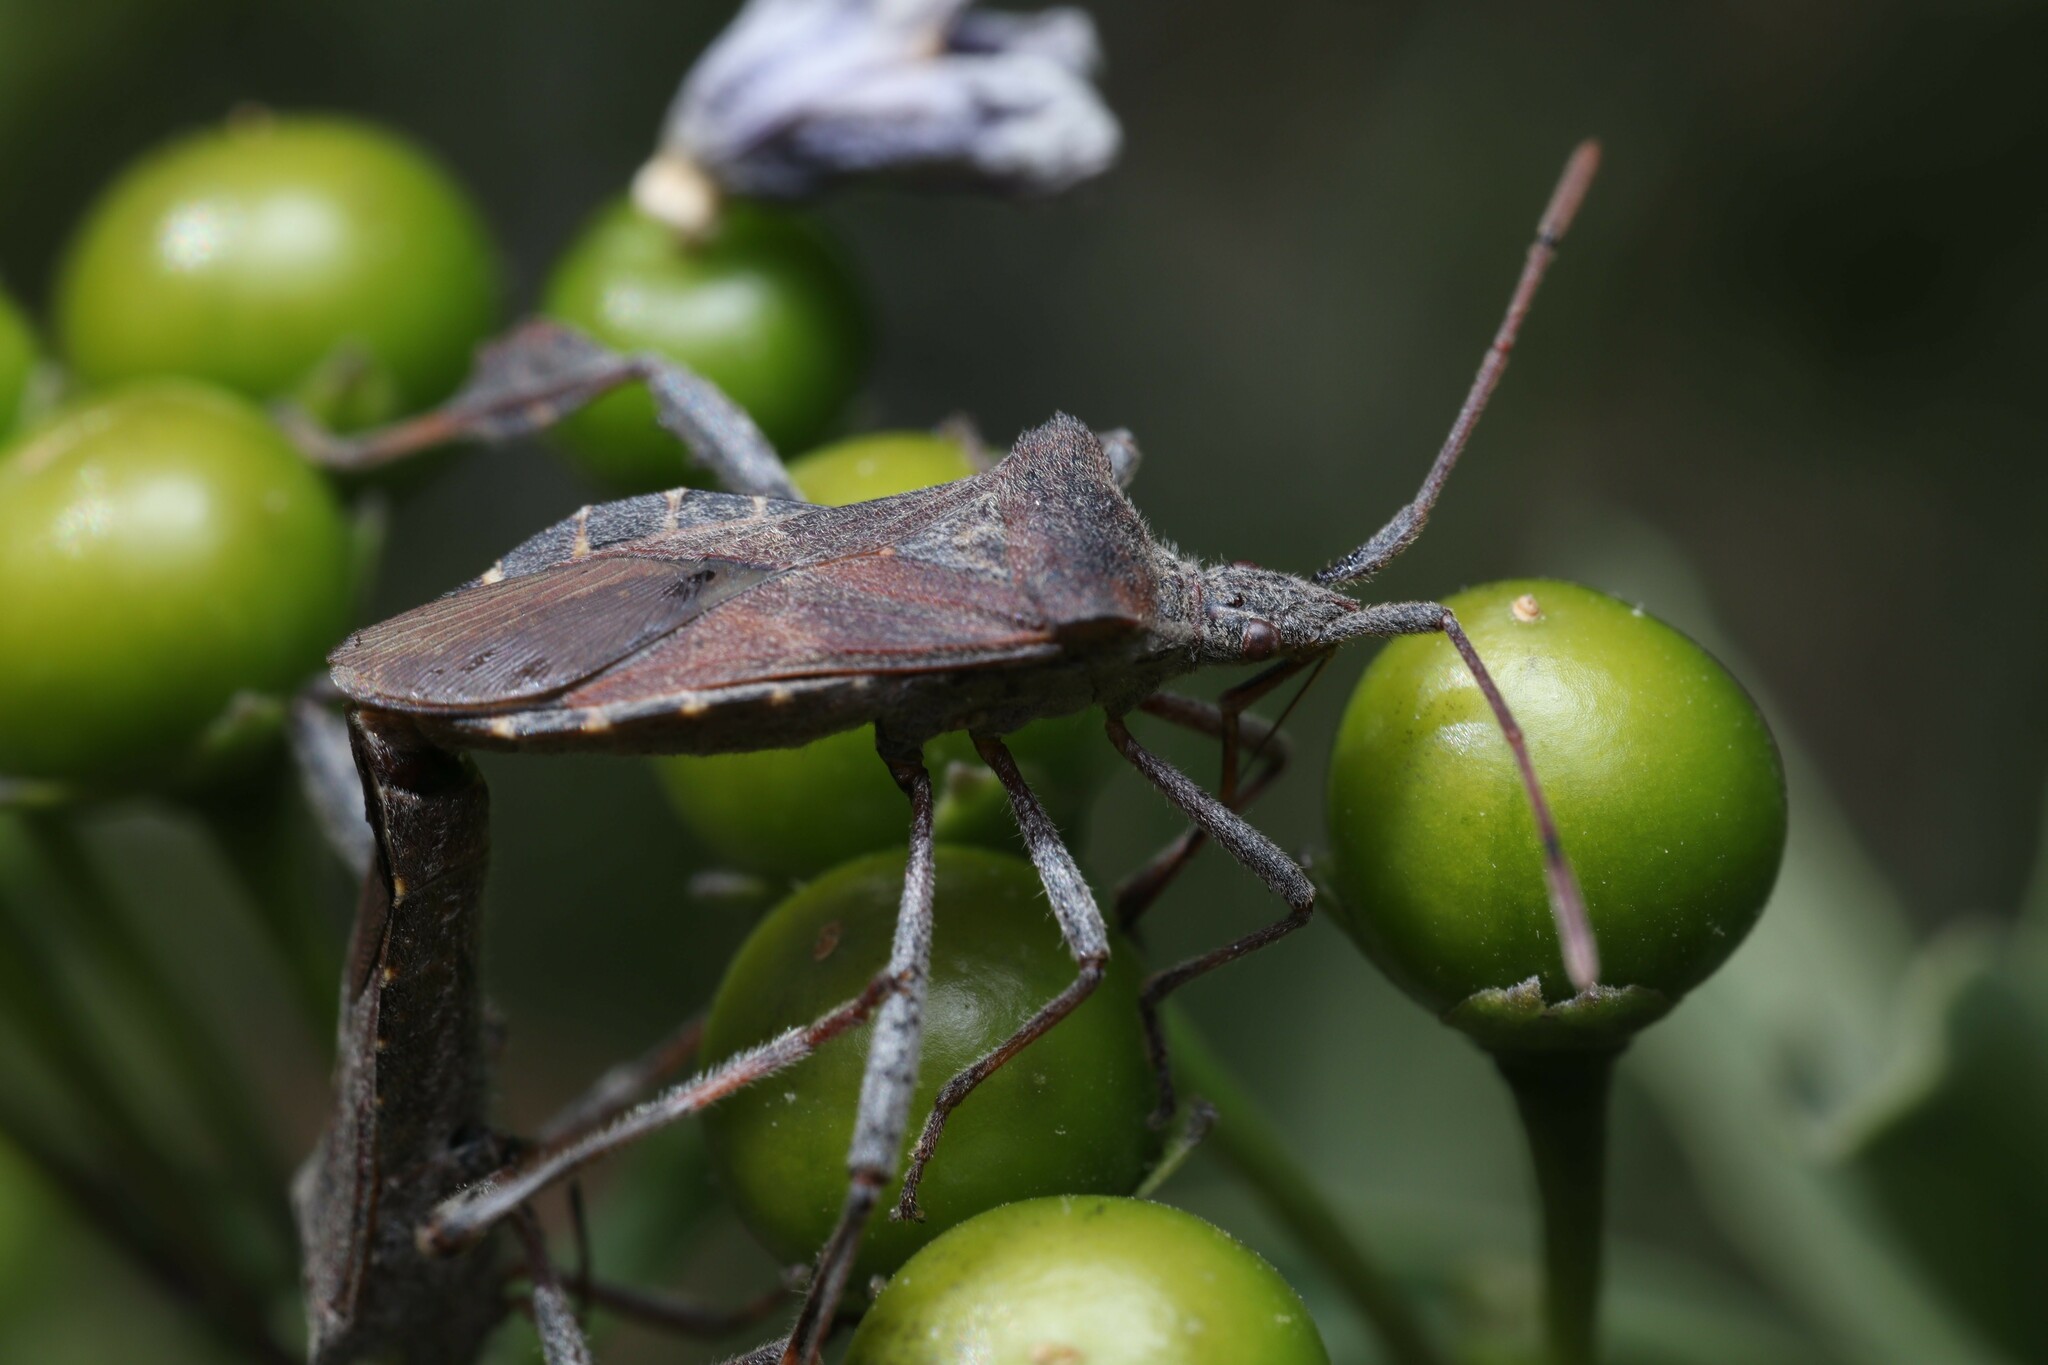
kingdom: Animalia
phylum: Arthropoda
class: Insecta
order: Hemiptera
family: Coreidae
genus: Leptoglossus
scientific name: Leptoglossus chilensis
